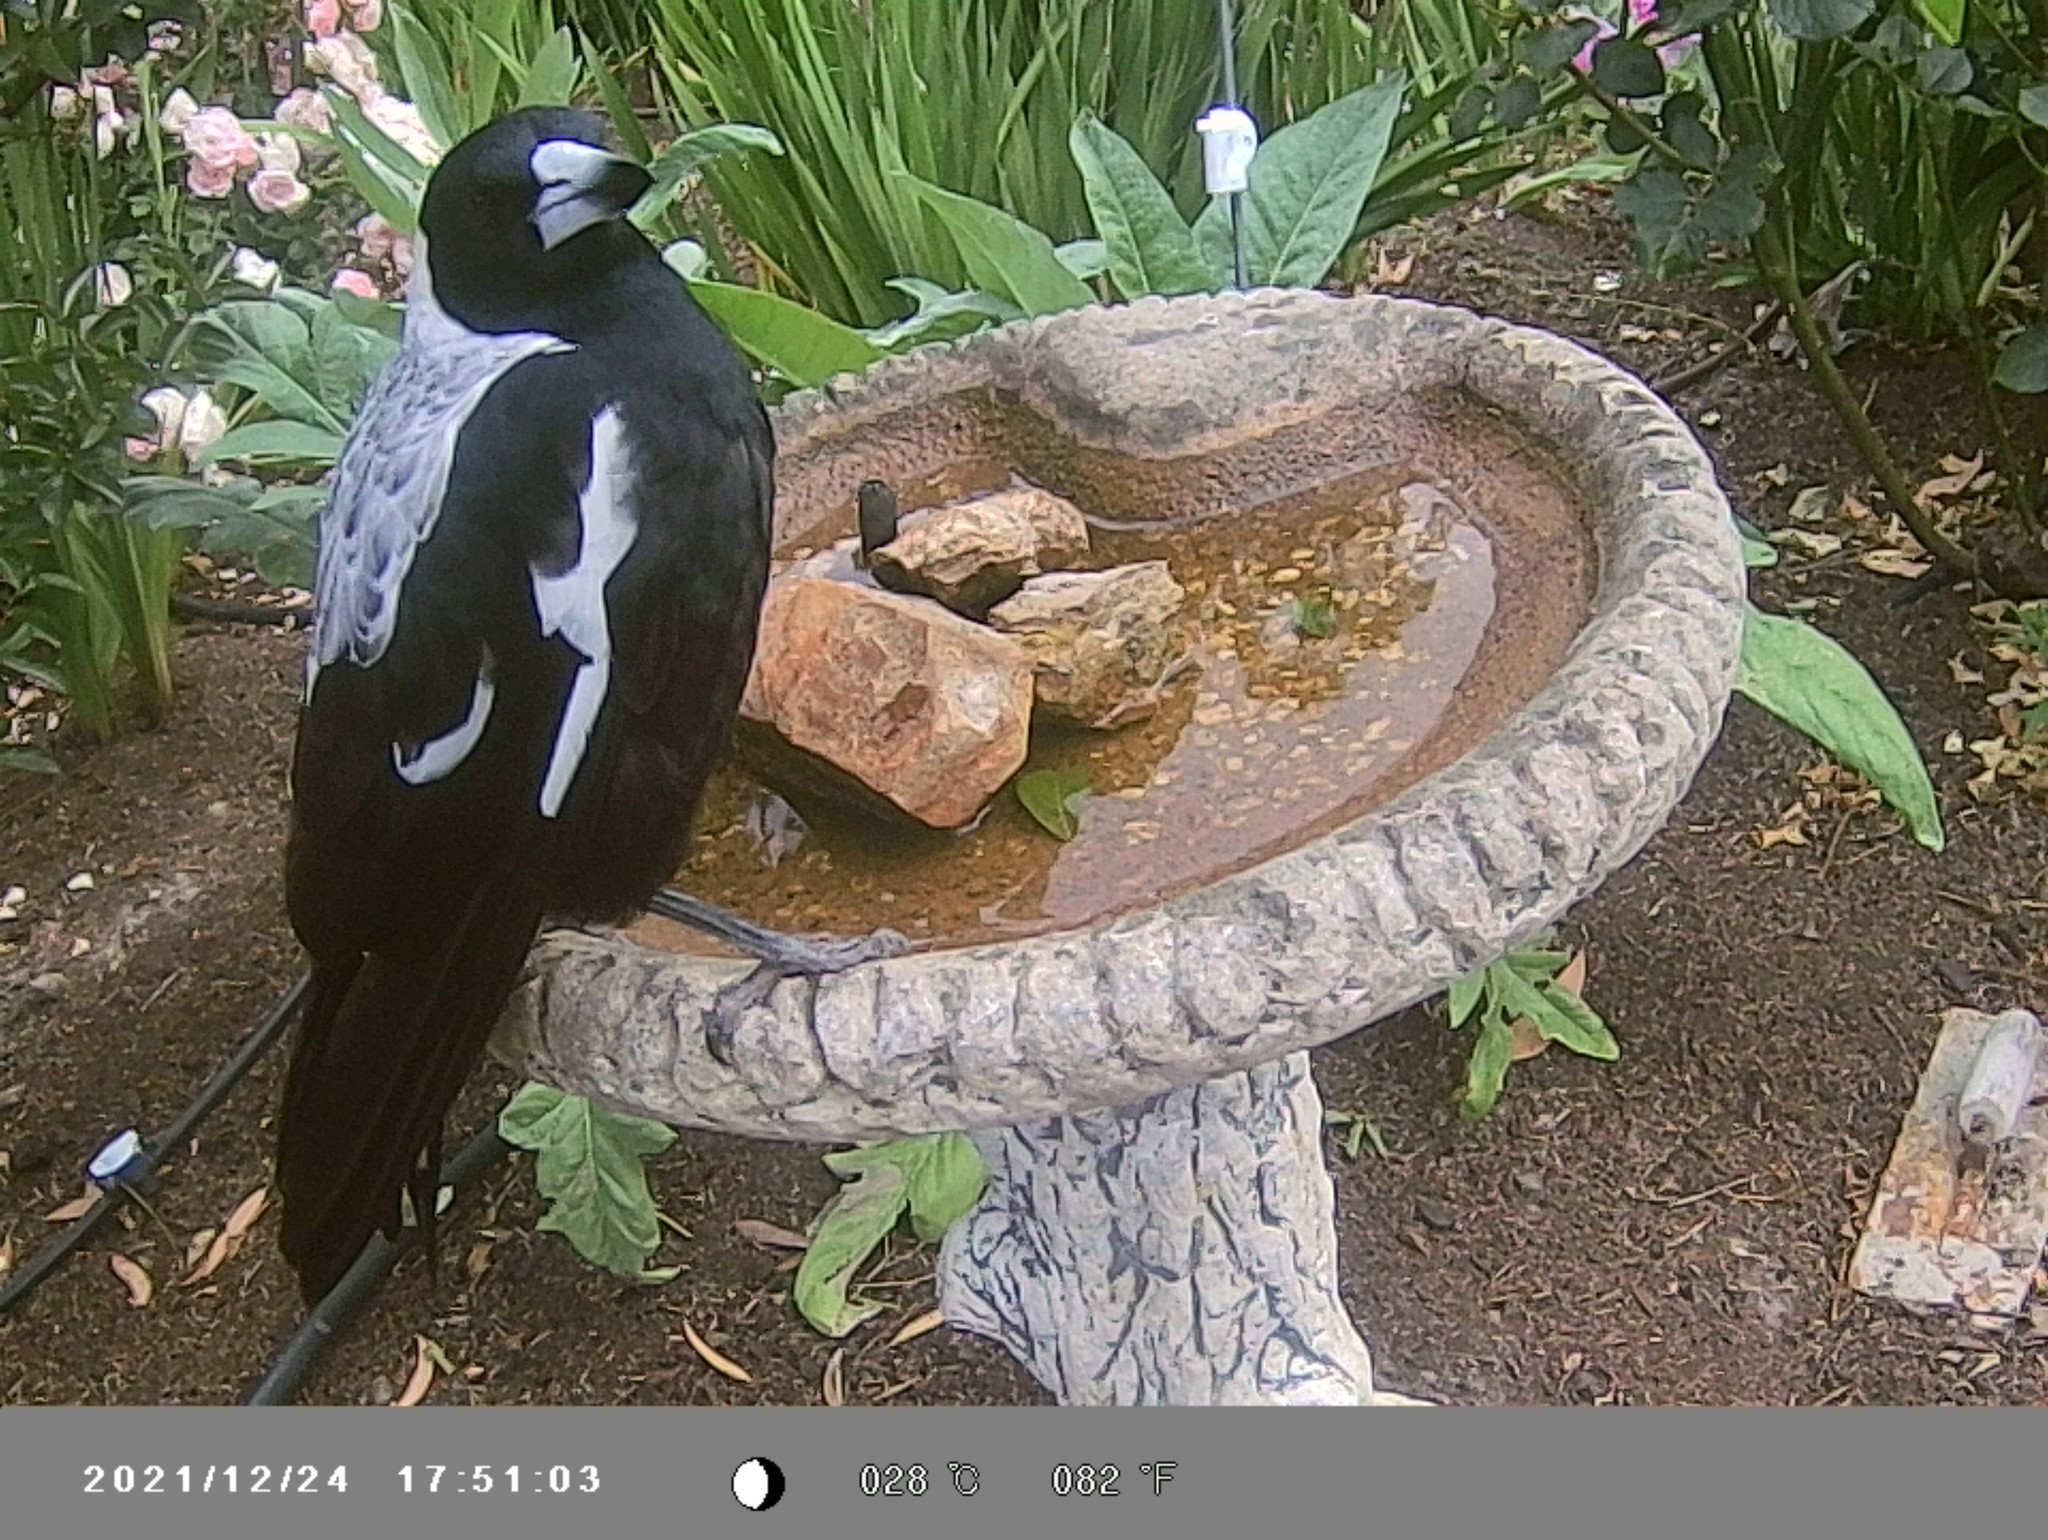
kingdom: Animalia
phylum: Chordata
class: Aves
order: Passeriformes
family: Cracticidae
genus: Gymnorhina
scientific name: Gymnorhina tibicen
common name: Australian magpie
